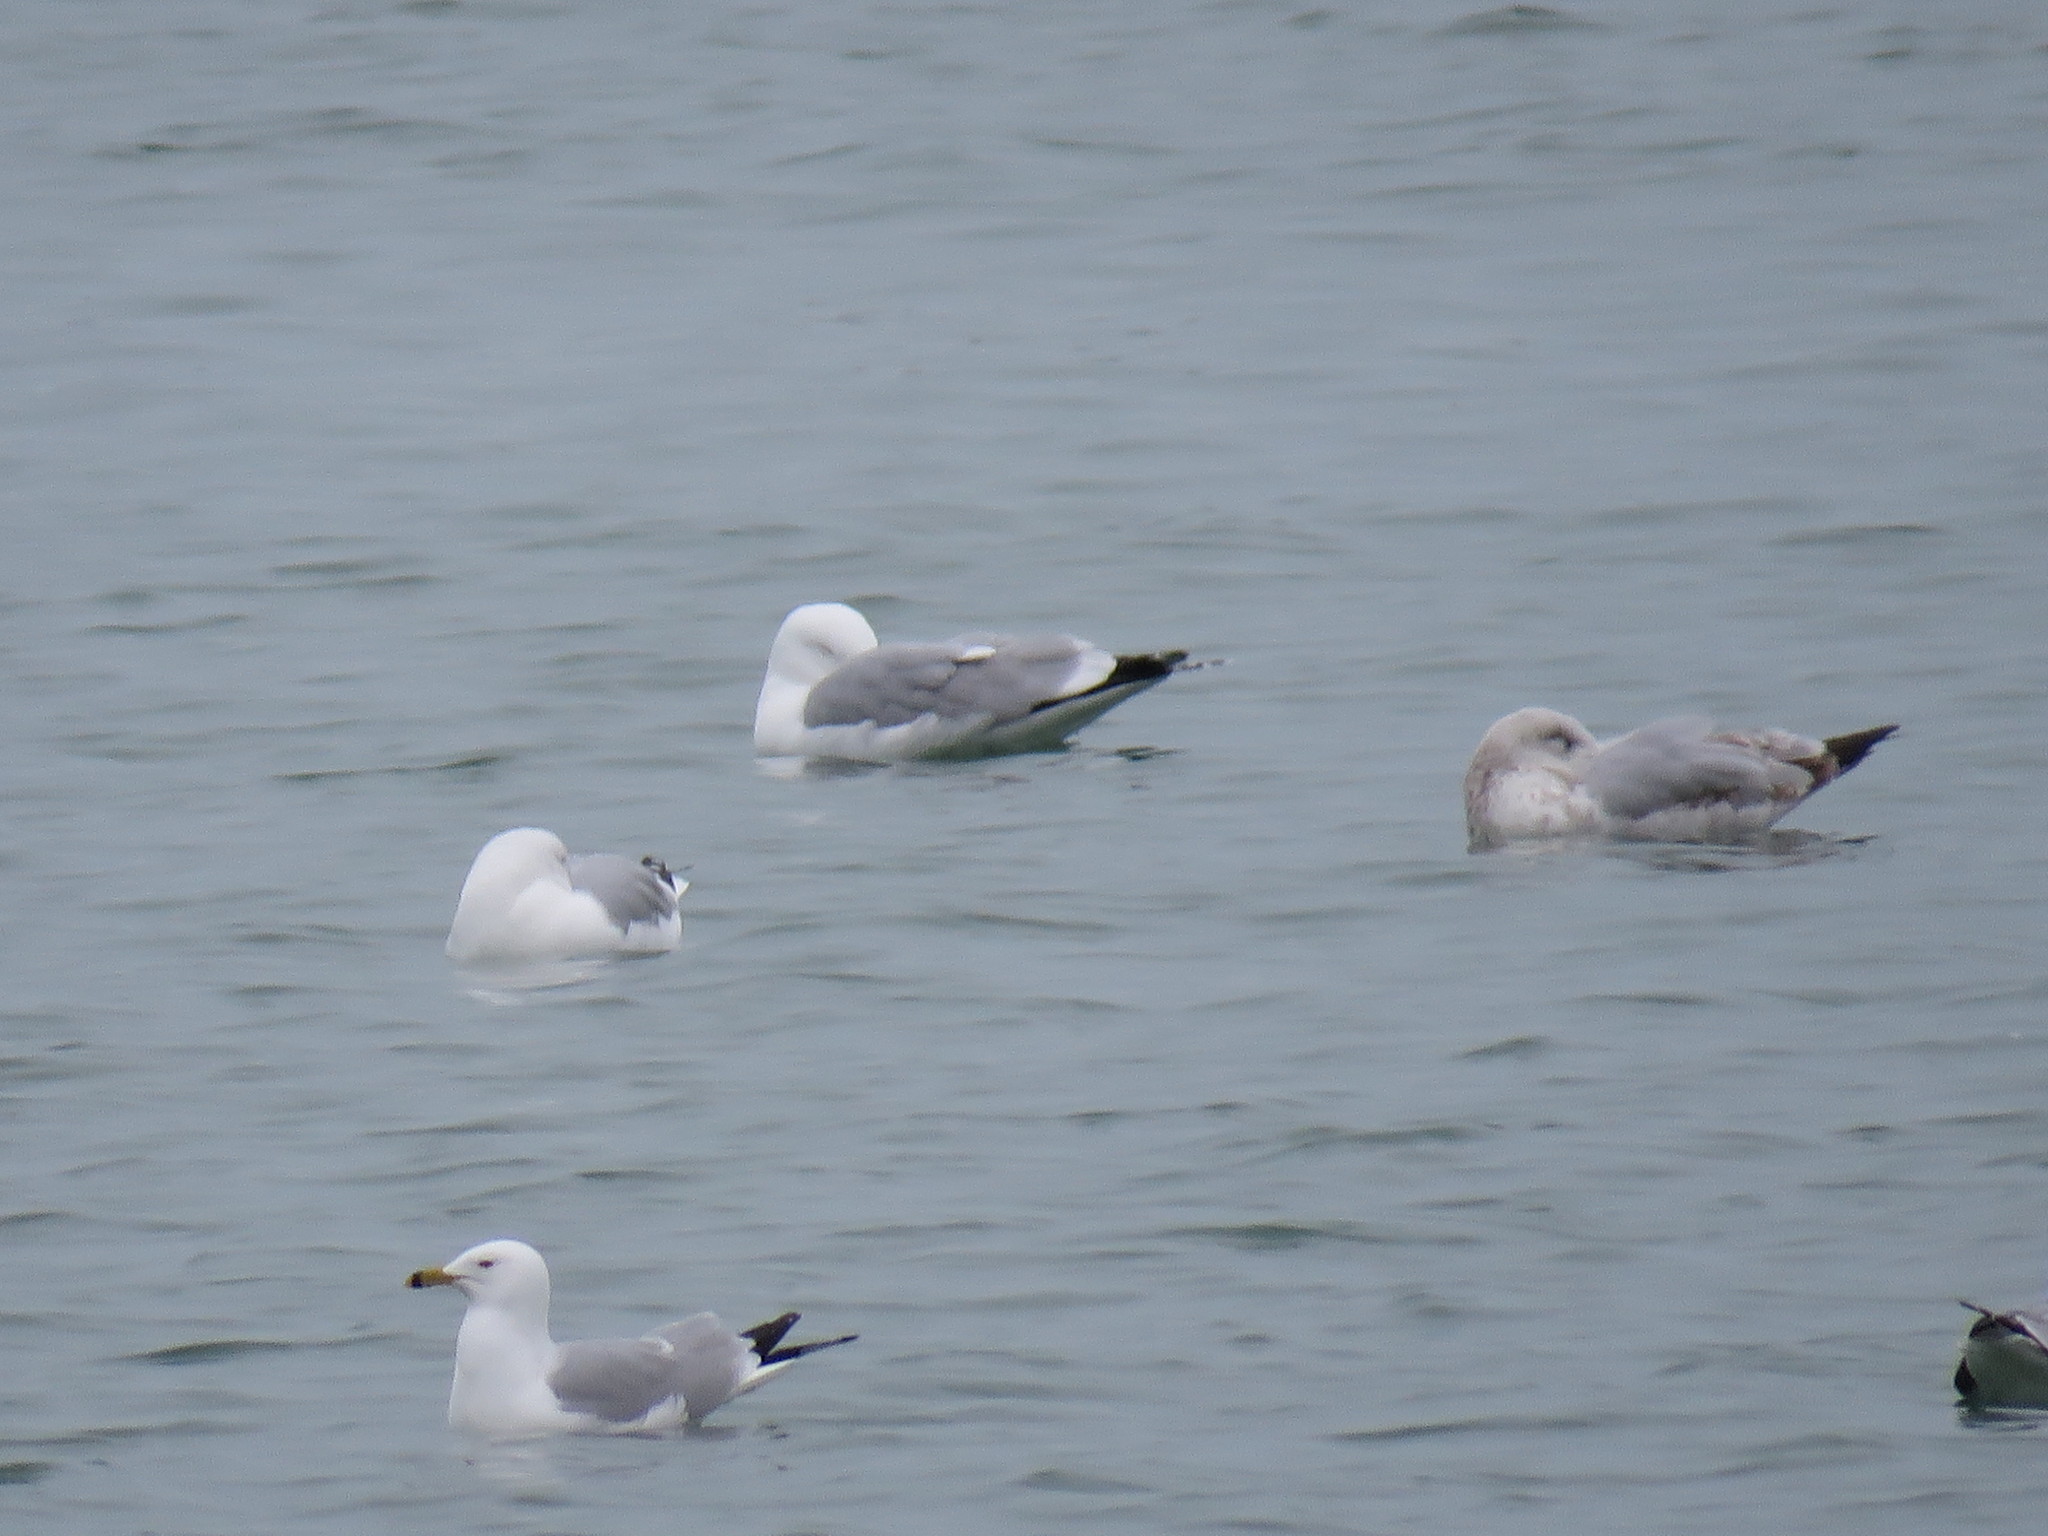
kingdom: Animalia
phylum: Chordata
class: Aves
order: Charadriiformes
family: Laridae
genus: Larus
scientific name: Larus delawarensis
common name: Ring-billed gull
